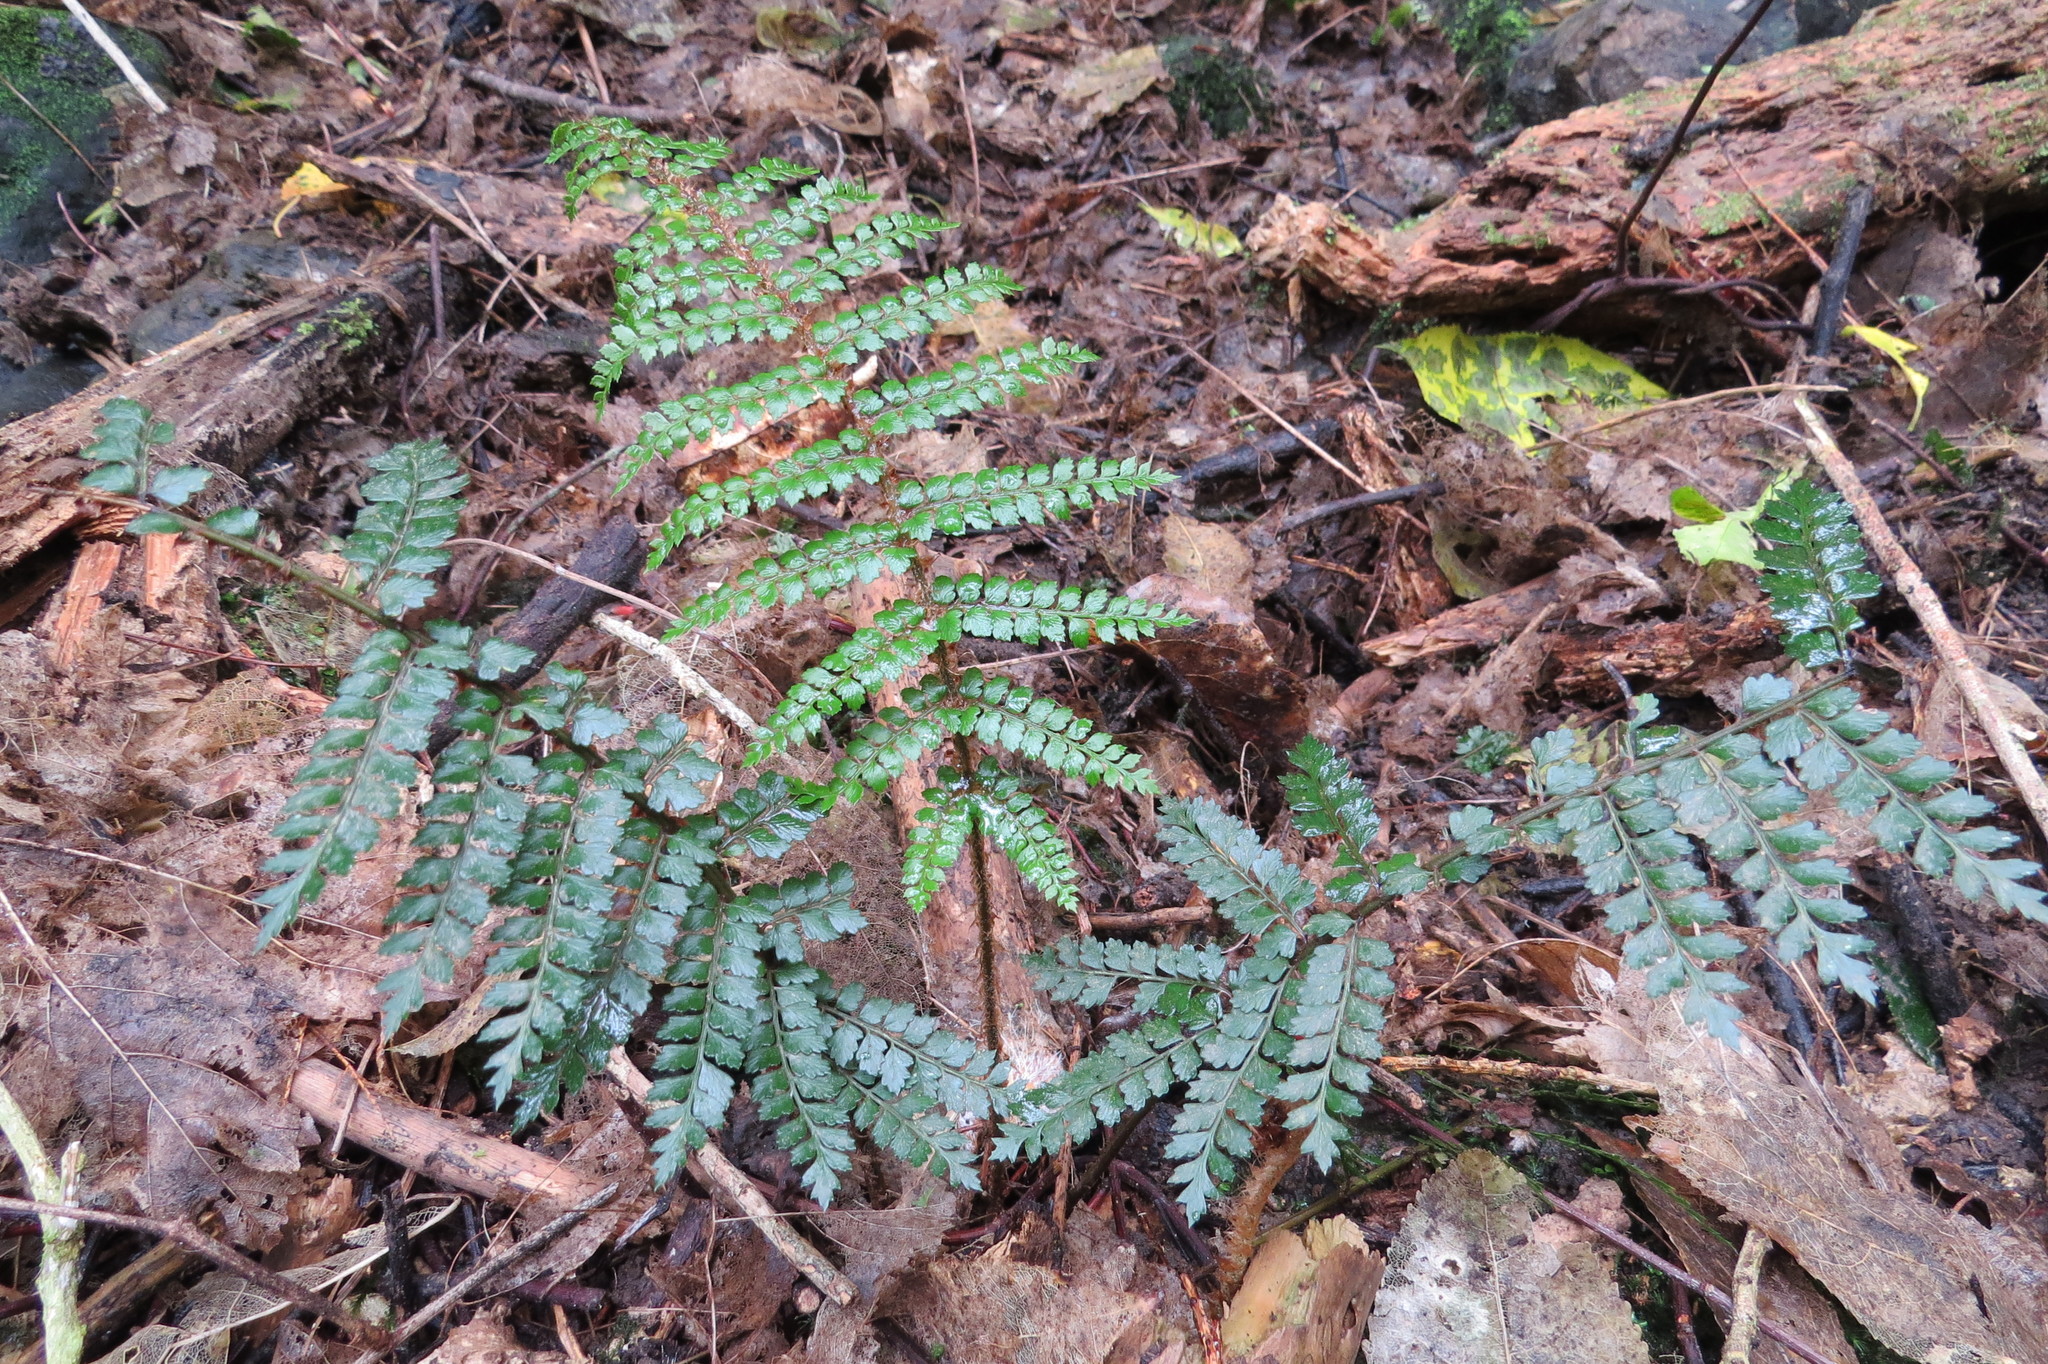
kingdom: Plantae
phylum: Tracheophyta
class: Polypodiopsida
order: Polypodiales
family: Dryopteridaceae
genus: Polystichum
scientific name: Polystichum vestitum
